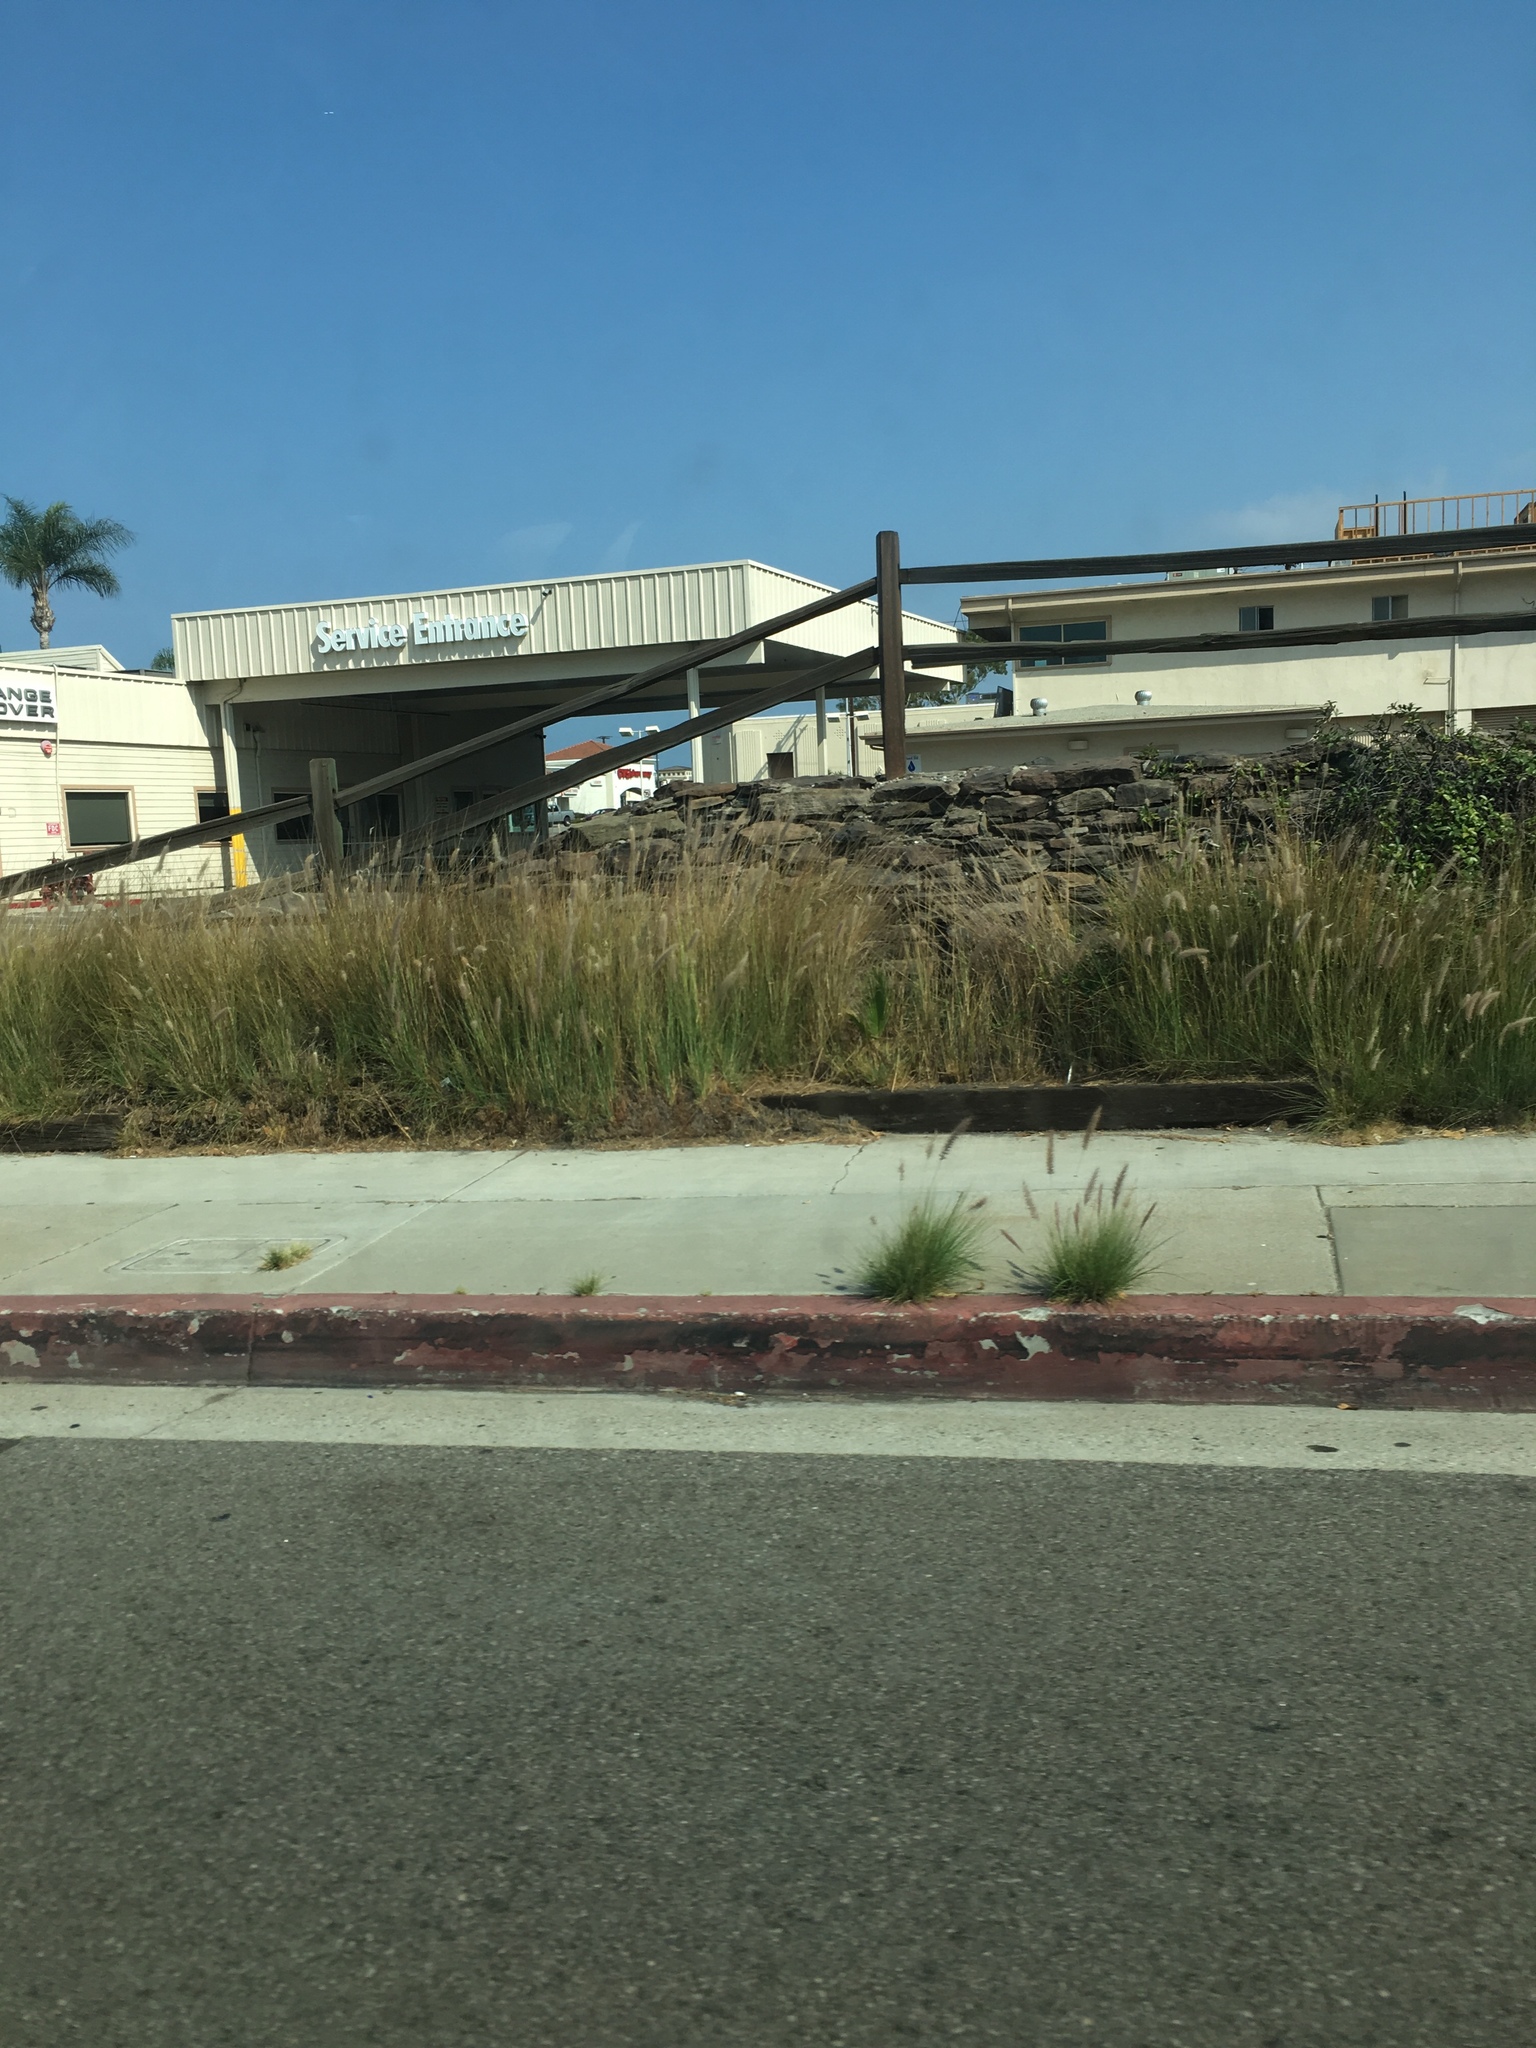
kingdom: Plantae
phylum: Tracheophyta
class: Liliopsida
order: Poales
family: Poaceae
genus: Cenchrus
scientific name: Cenchrus setaceus
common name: Crimson fountaingrass
